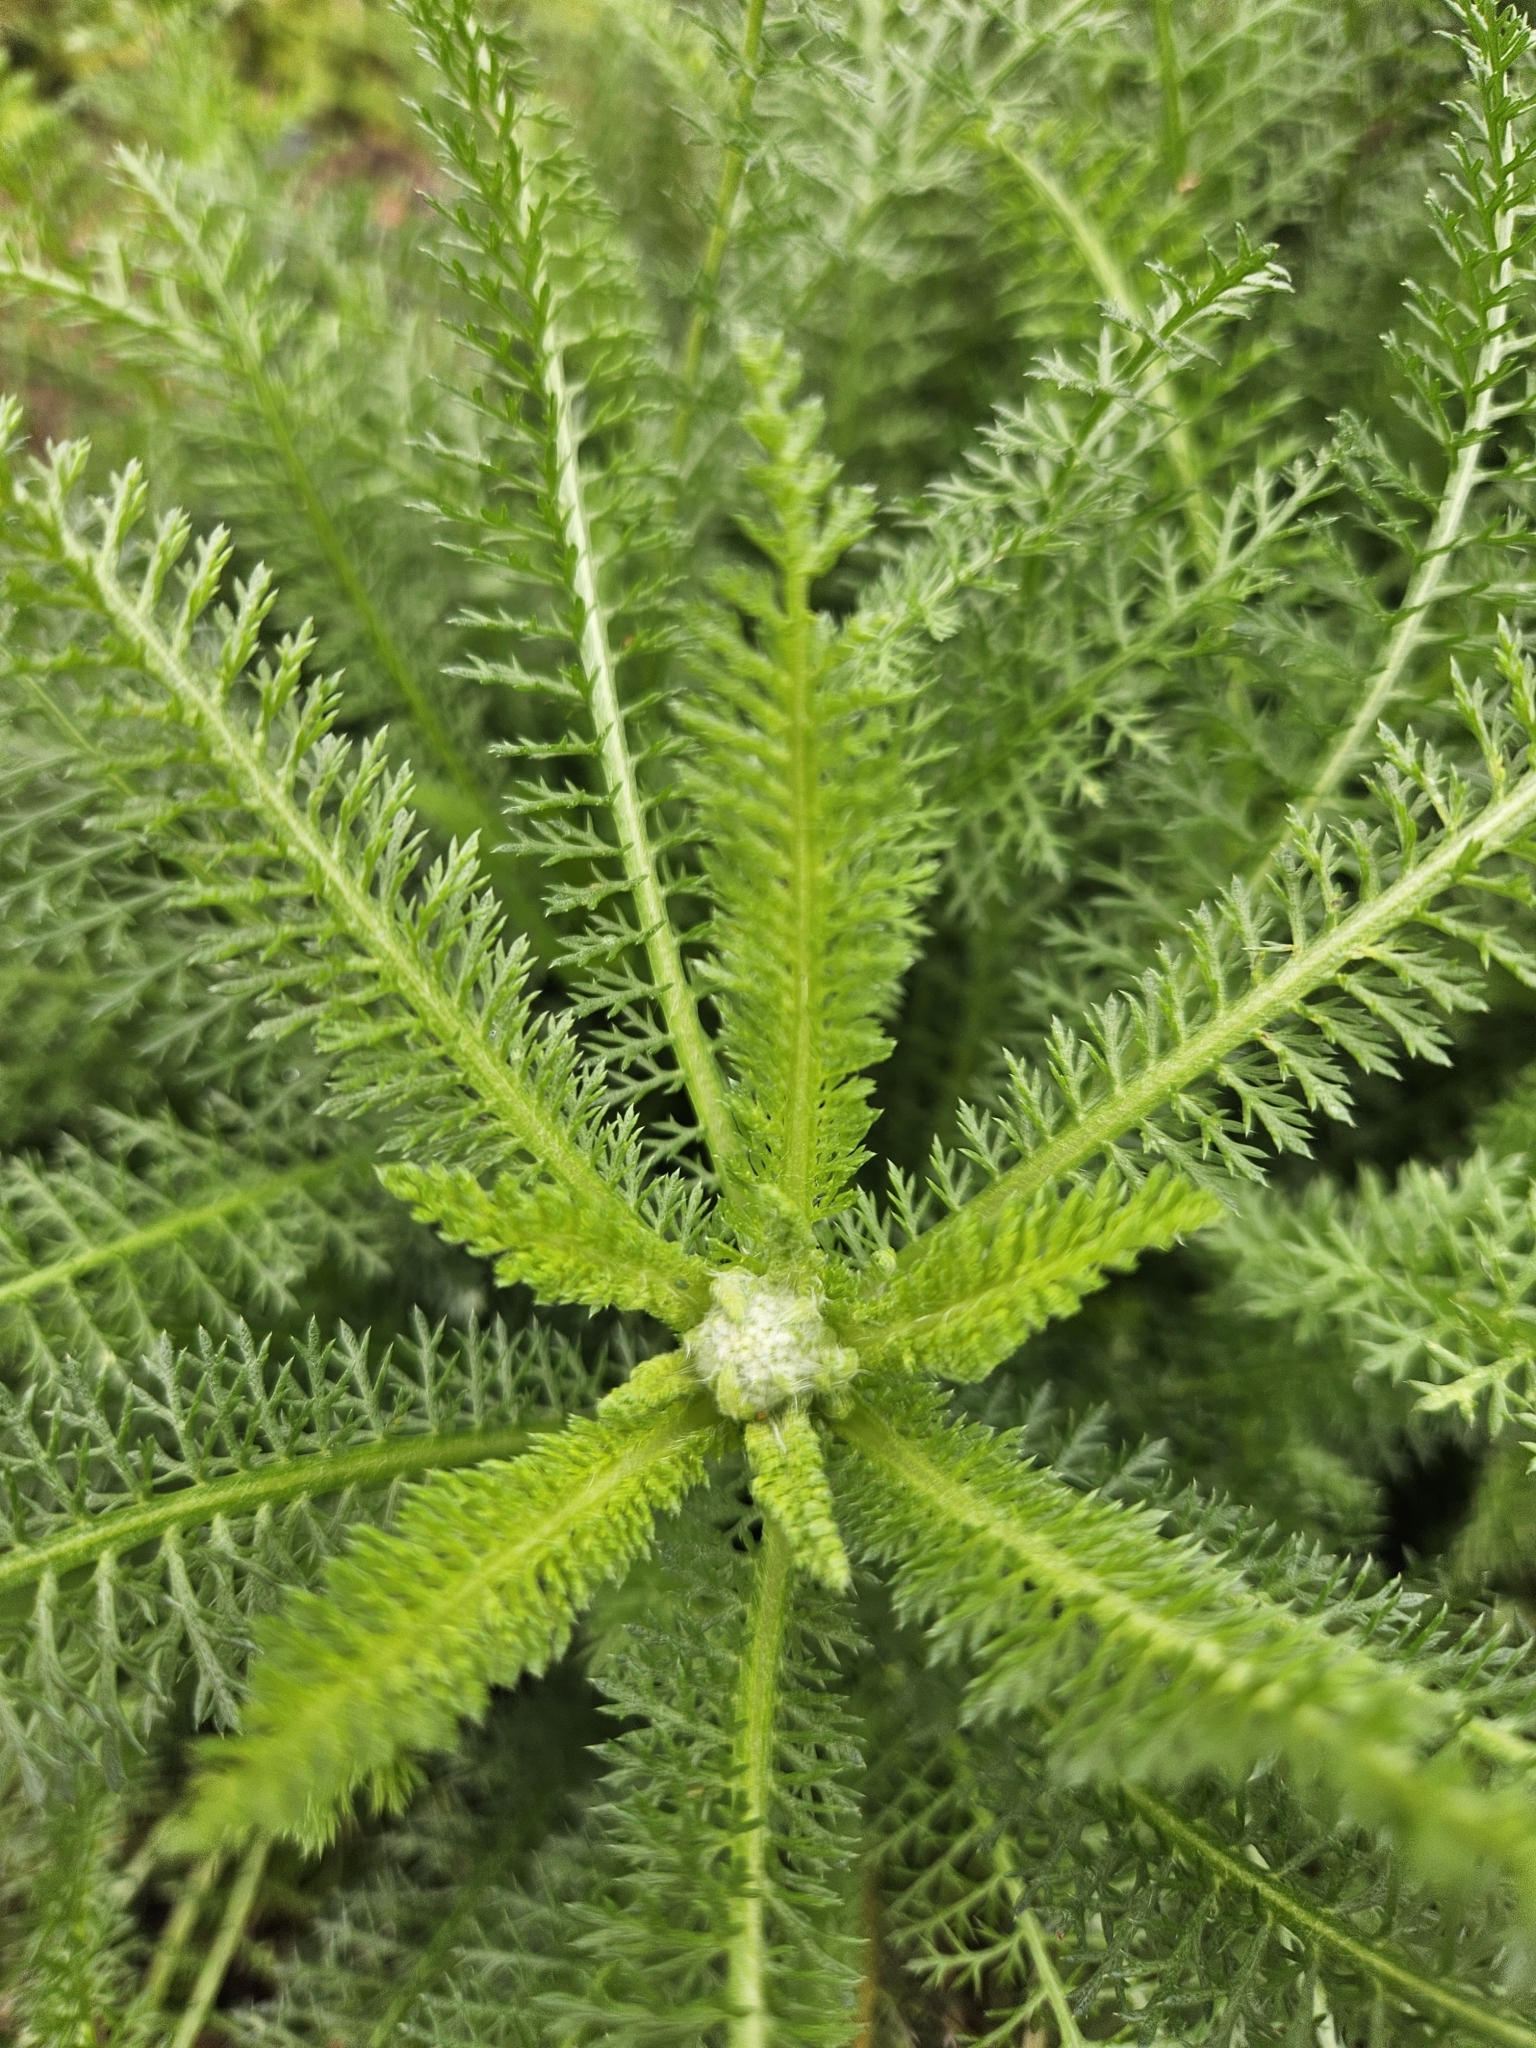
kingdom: Plantae
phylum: Tracheophyta
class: Magnoliopsida
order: Asterales
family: Asteraceae
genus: Achillea
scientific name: Achillea millefolium
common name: Yarrow
